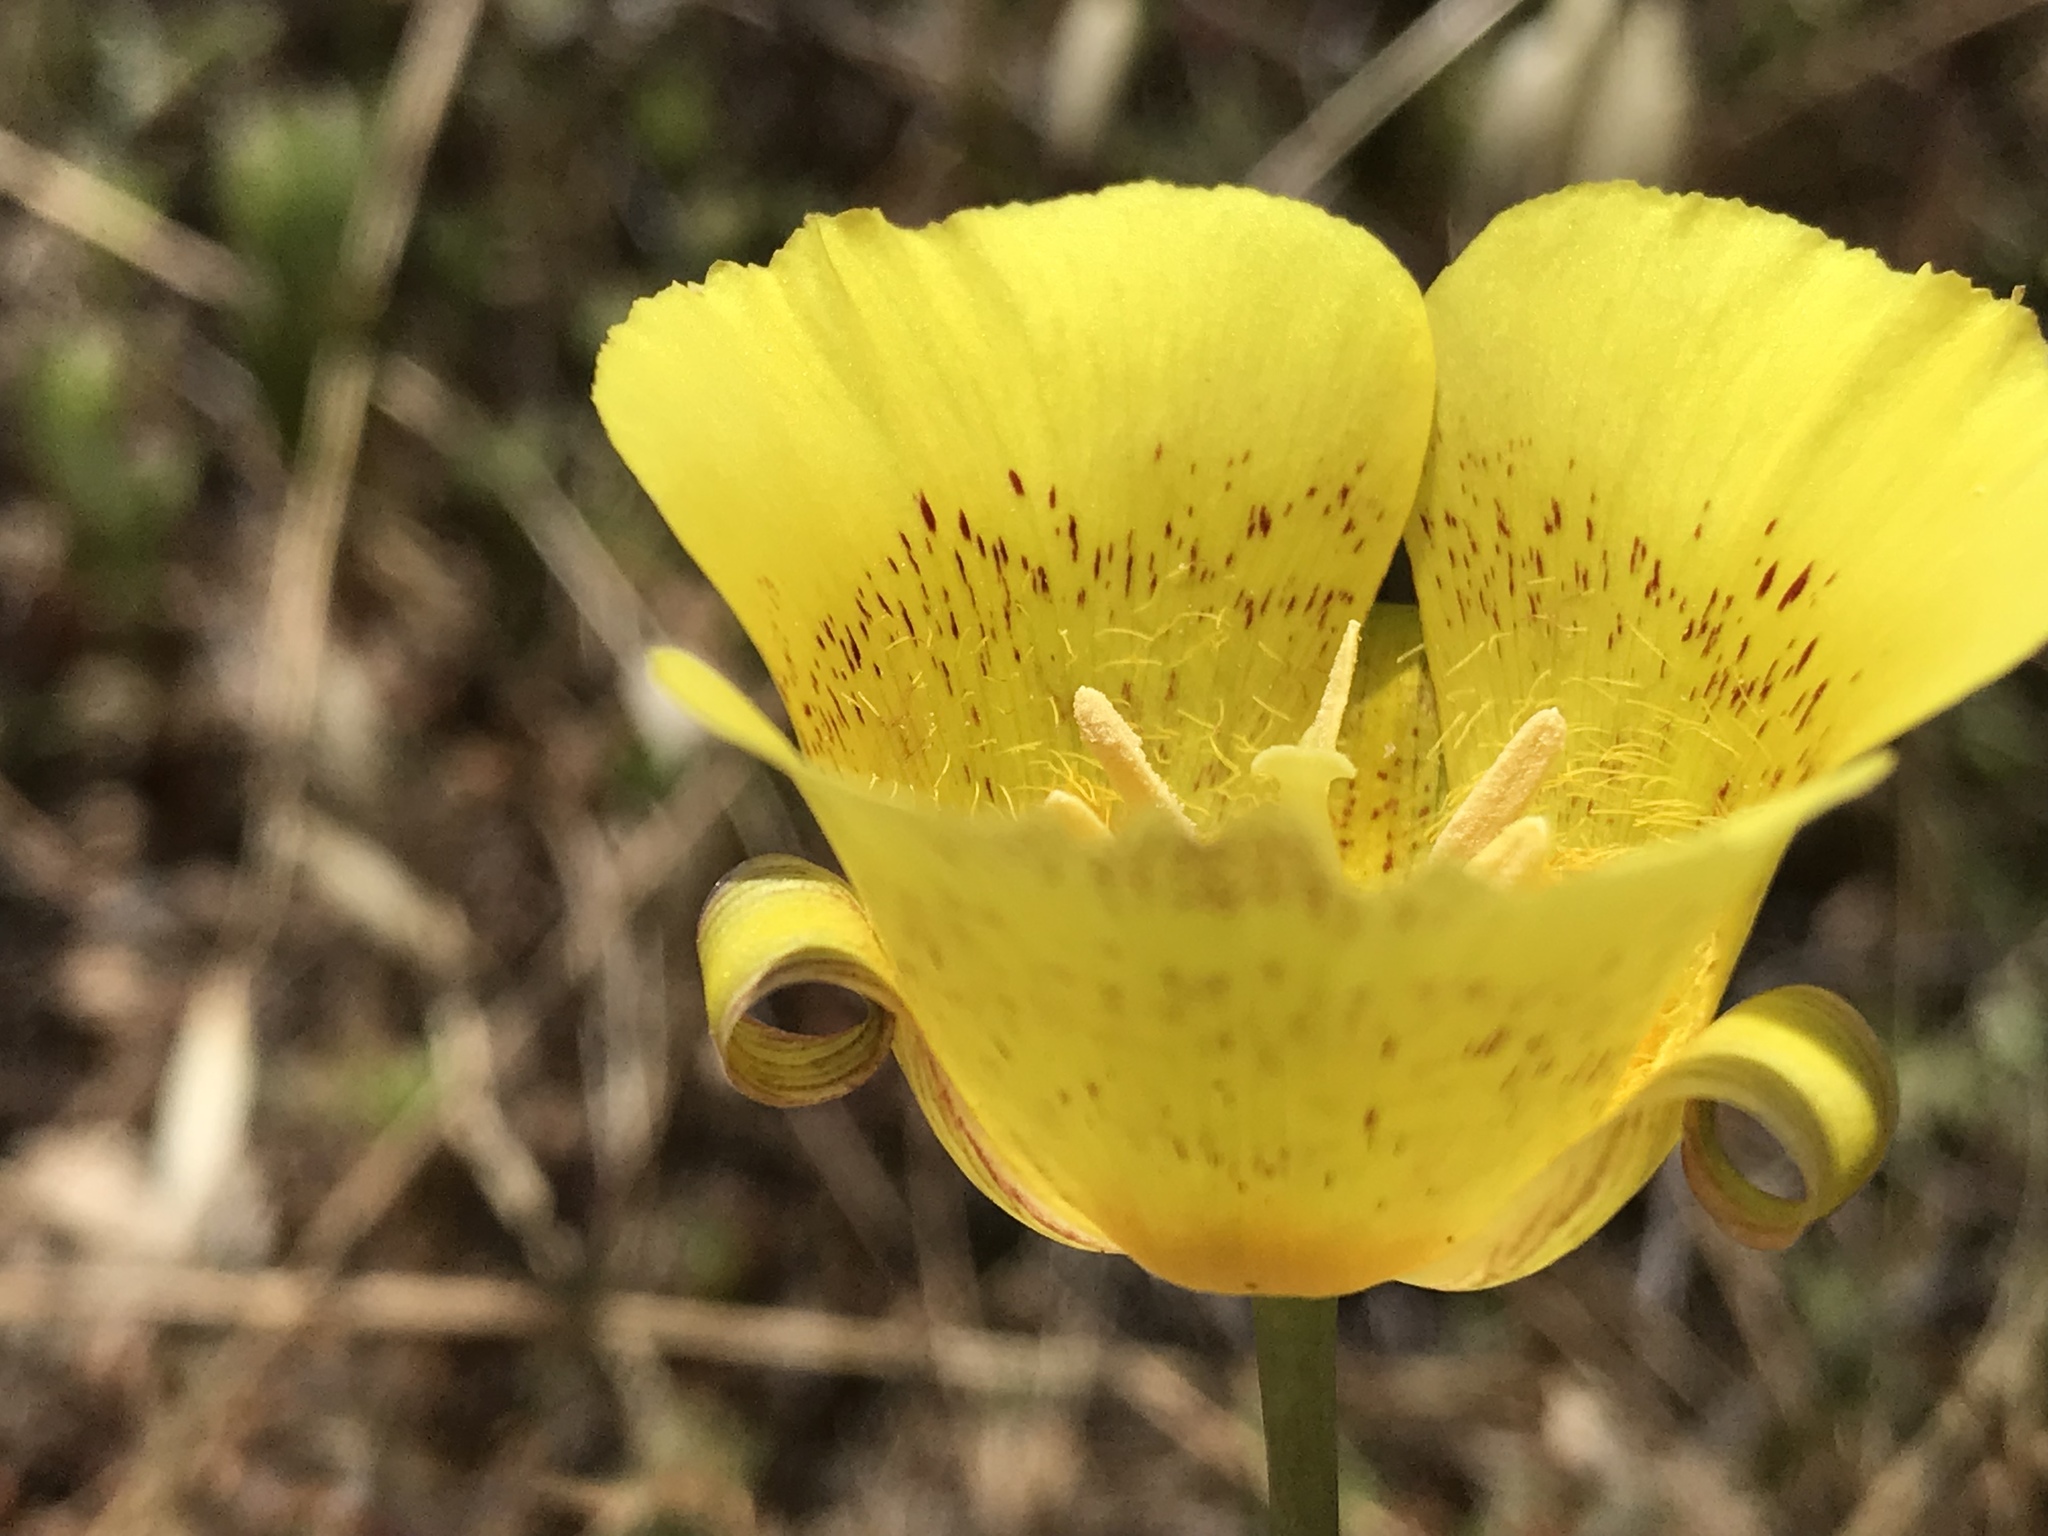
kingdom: Plantae
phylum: Tracheophyta
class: Liliopsida
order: Liliales
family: Liliaceae
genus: Calochortus
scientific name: Calochortus luteus
